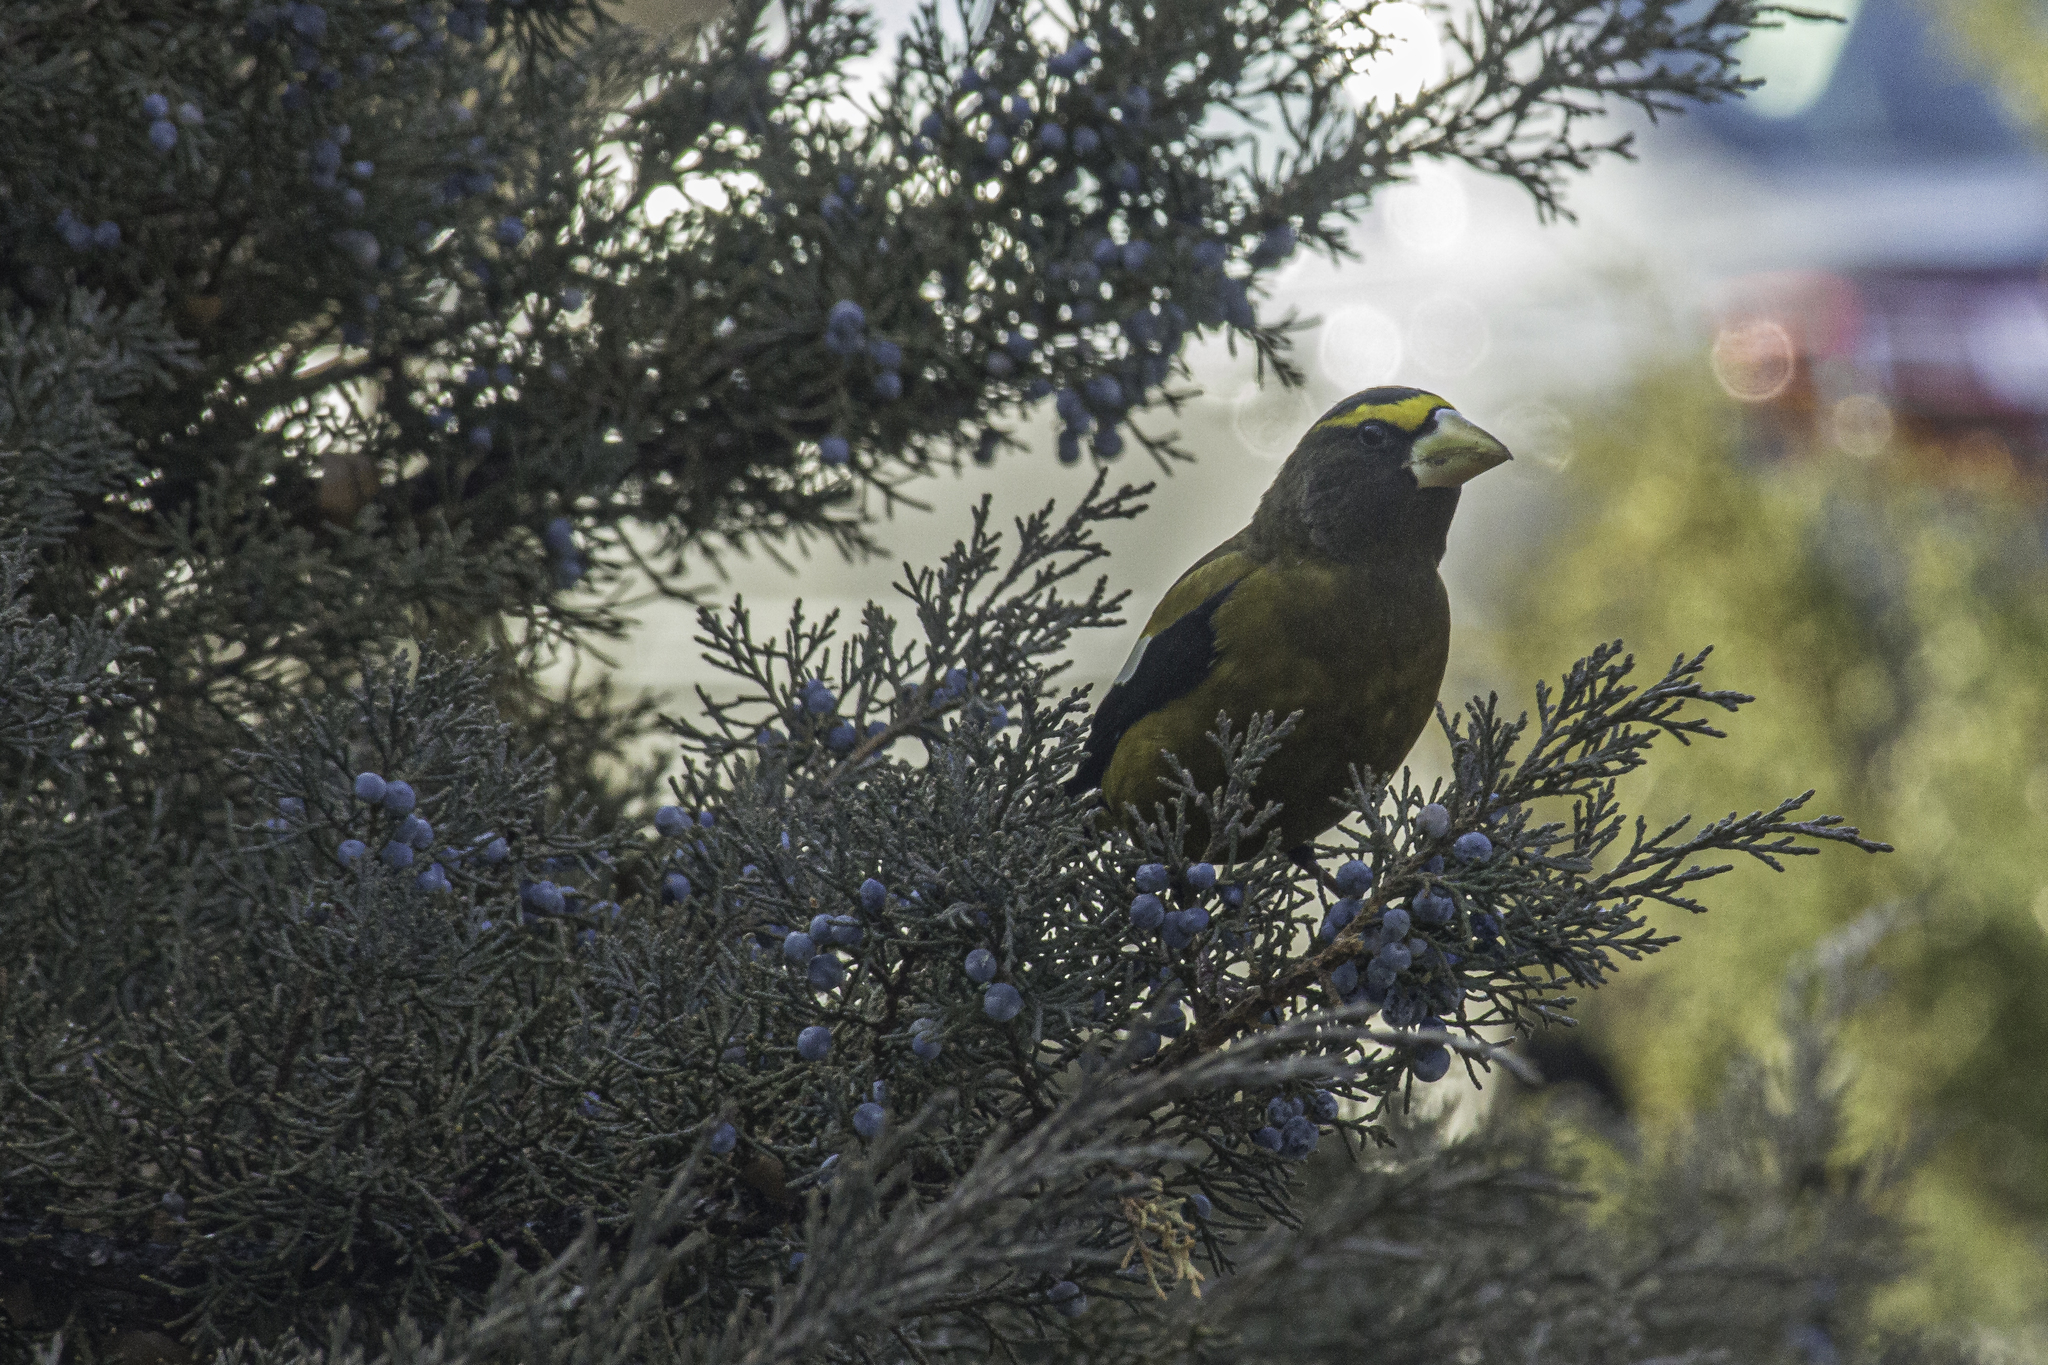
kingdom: Animalia
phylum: Chordata
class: Aves
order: Passeriformes
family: Fringillidae
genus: Hesperiphona
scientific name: Hesperiphona vespertina
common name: Evening grosbeak
